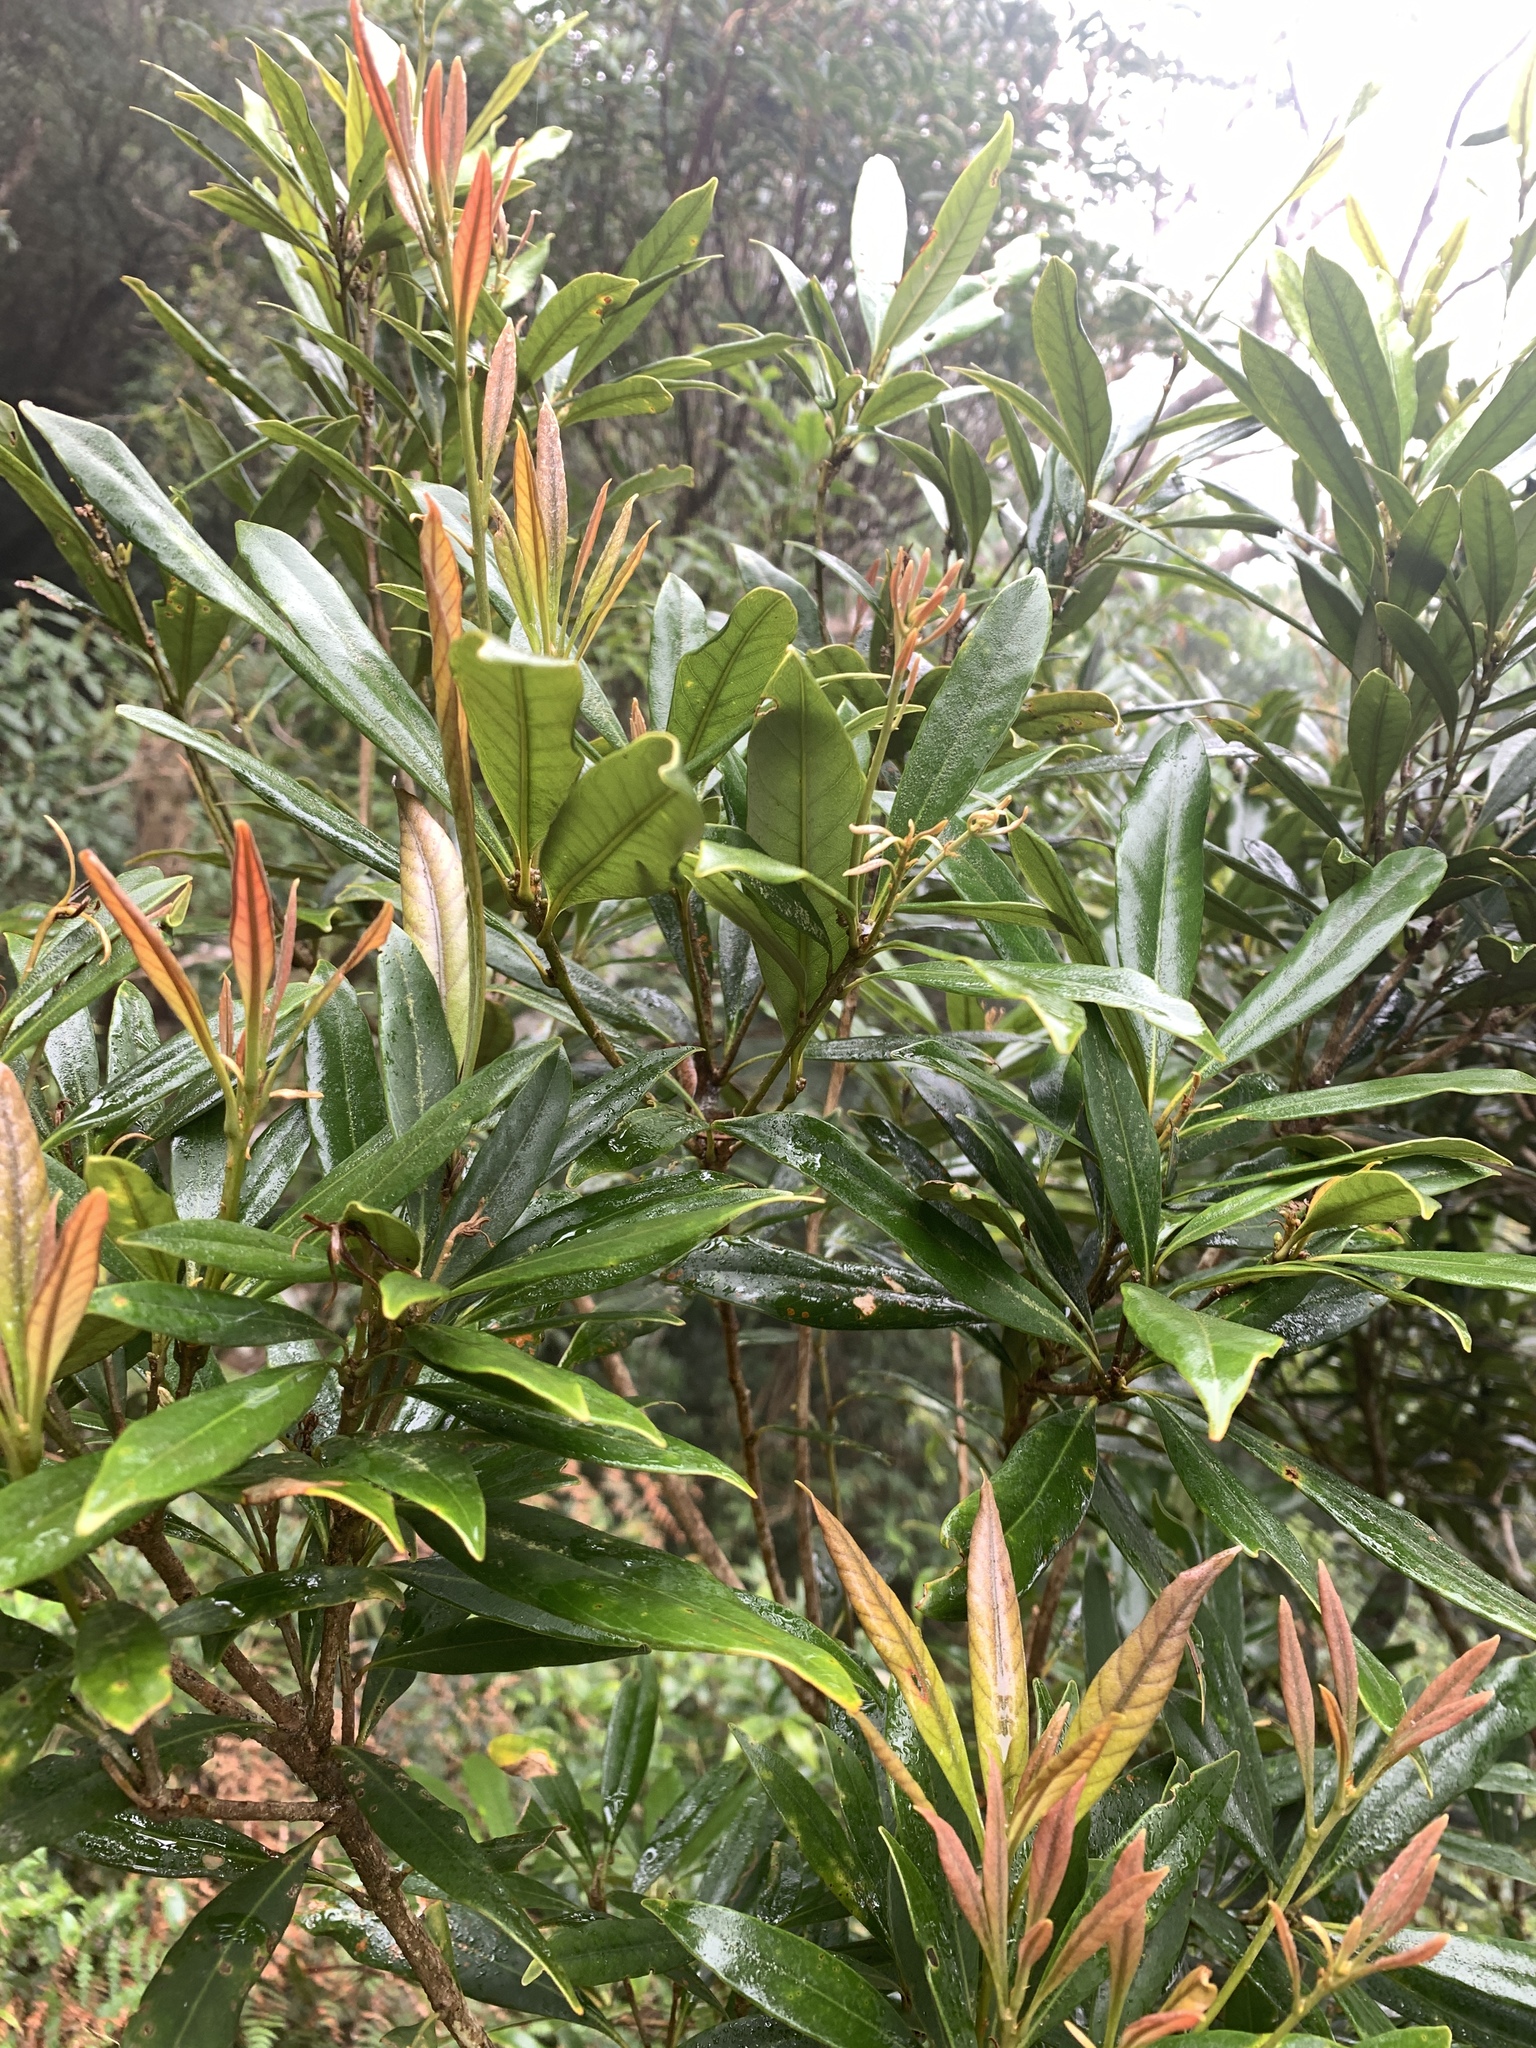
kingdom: Plantae
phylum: Tracheophyta
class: Magnoliopsida
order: Fagales
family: Fagaceae
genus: Lithocarpus
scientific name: Lithocarpus dodonaeifolius
